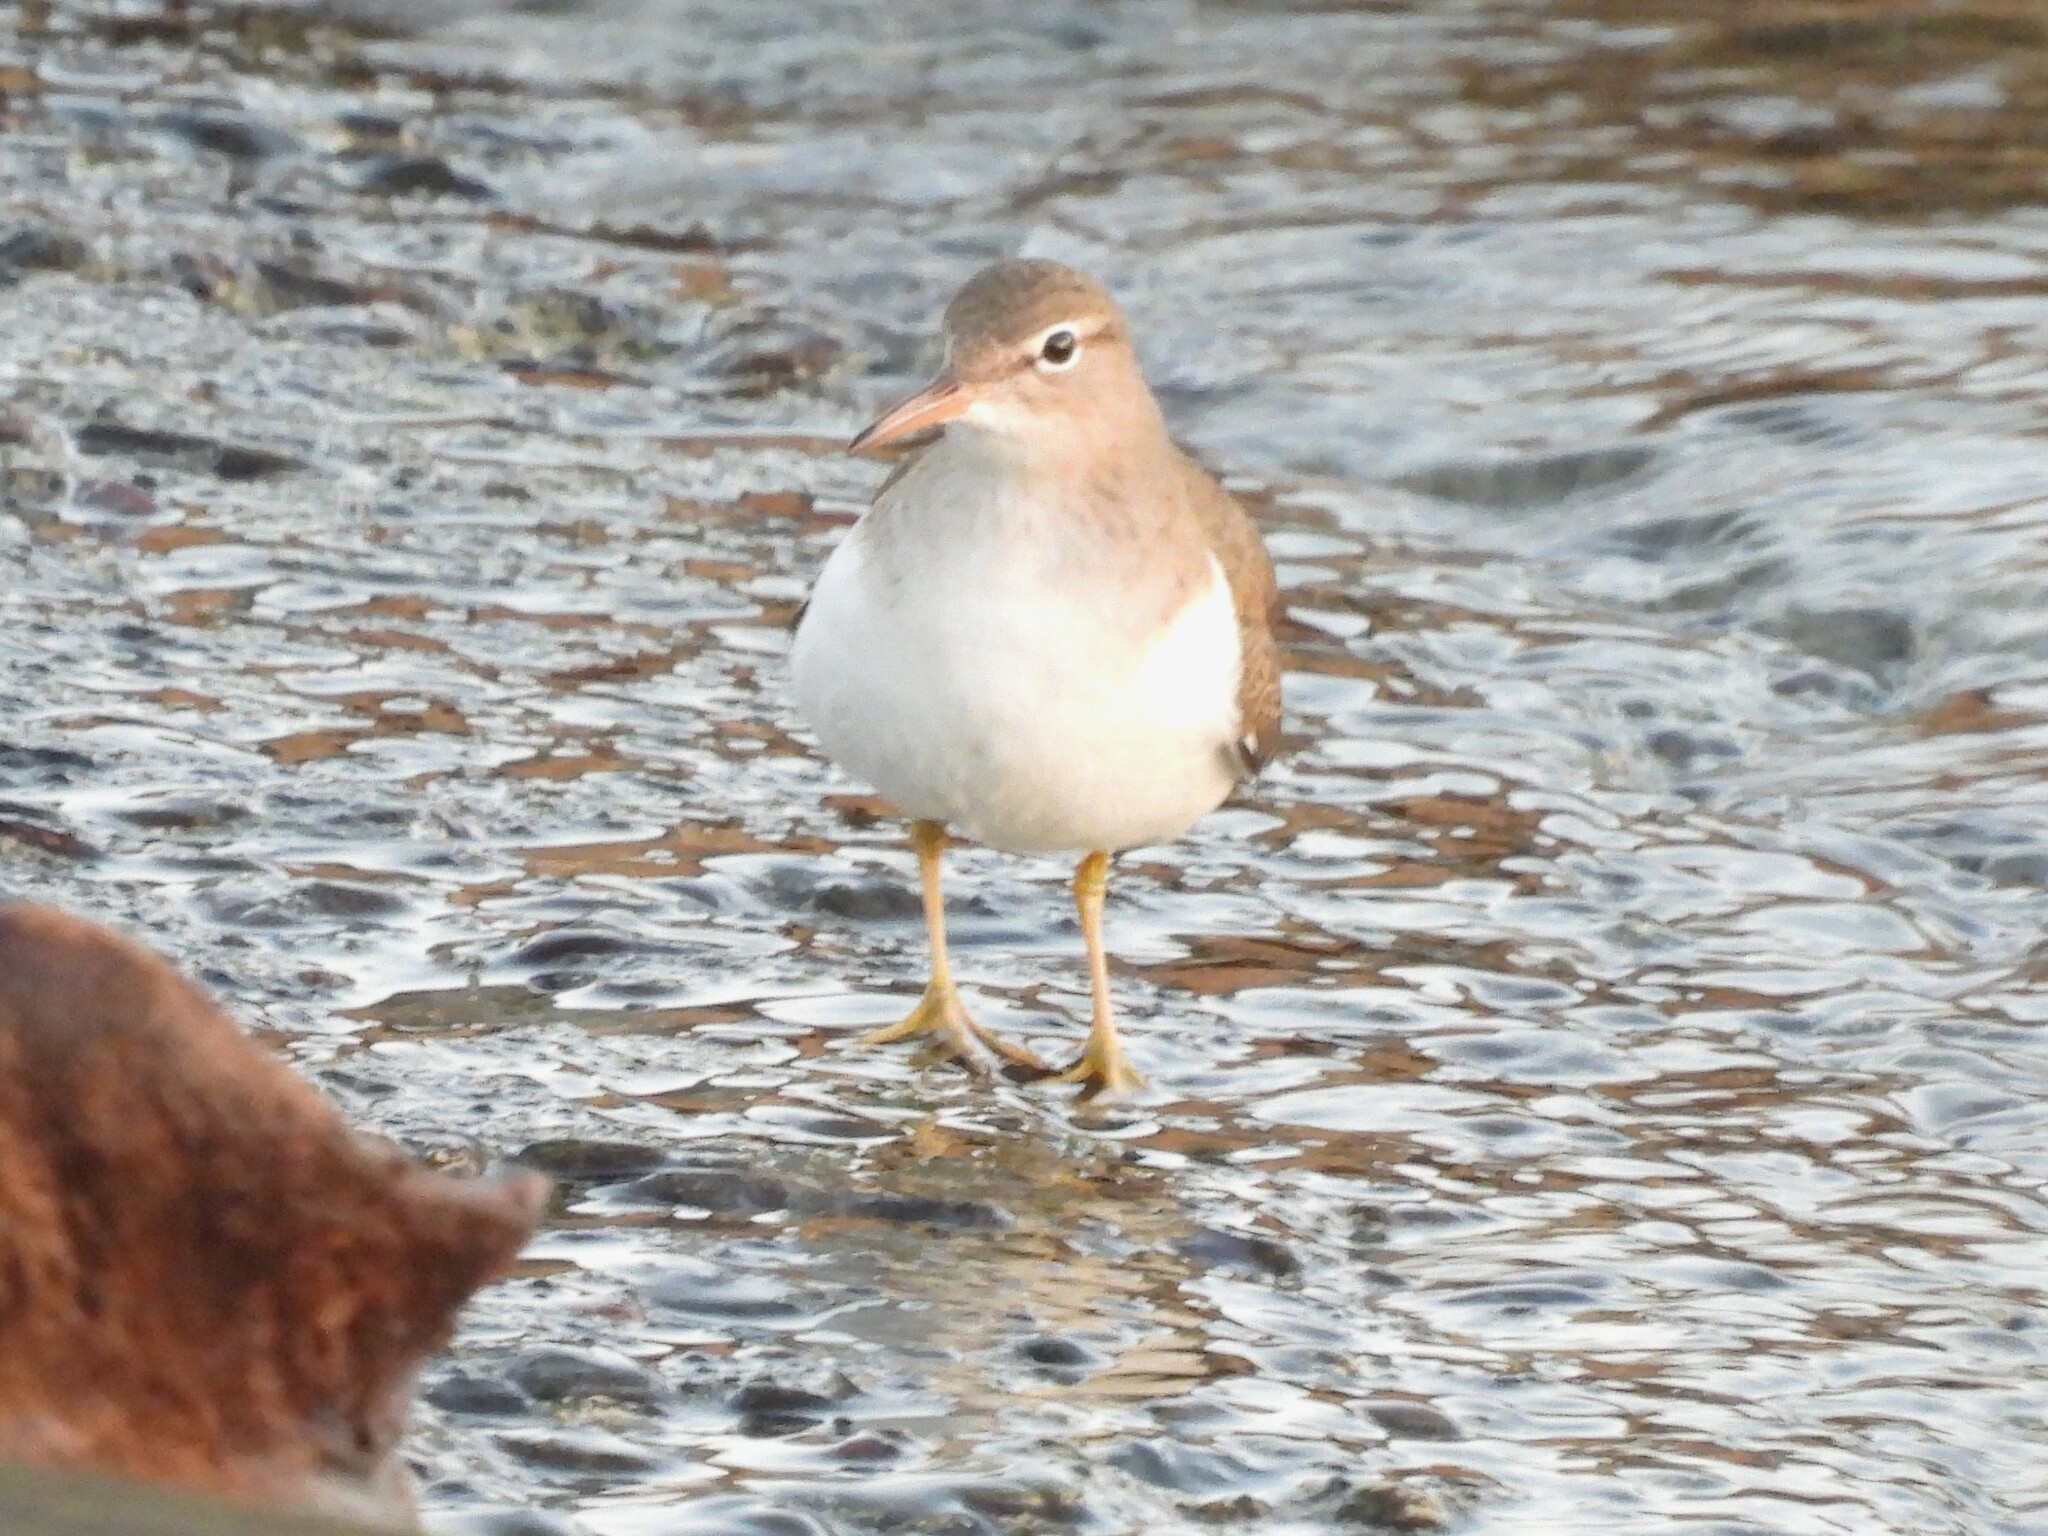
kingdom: Animalia
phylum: Chordata
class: Aves
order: Charadriiformes
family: Scolopacidae
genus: Actitis
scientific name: Actitis macularius
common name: Spotted sandpiper
